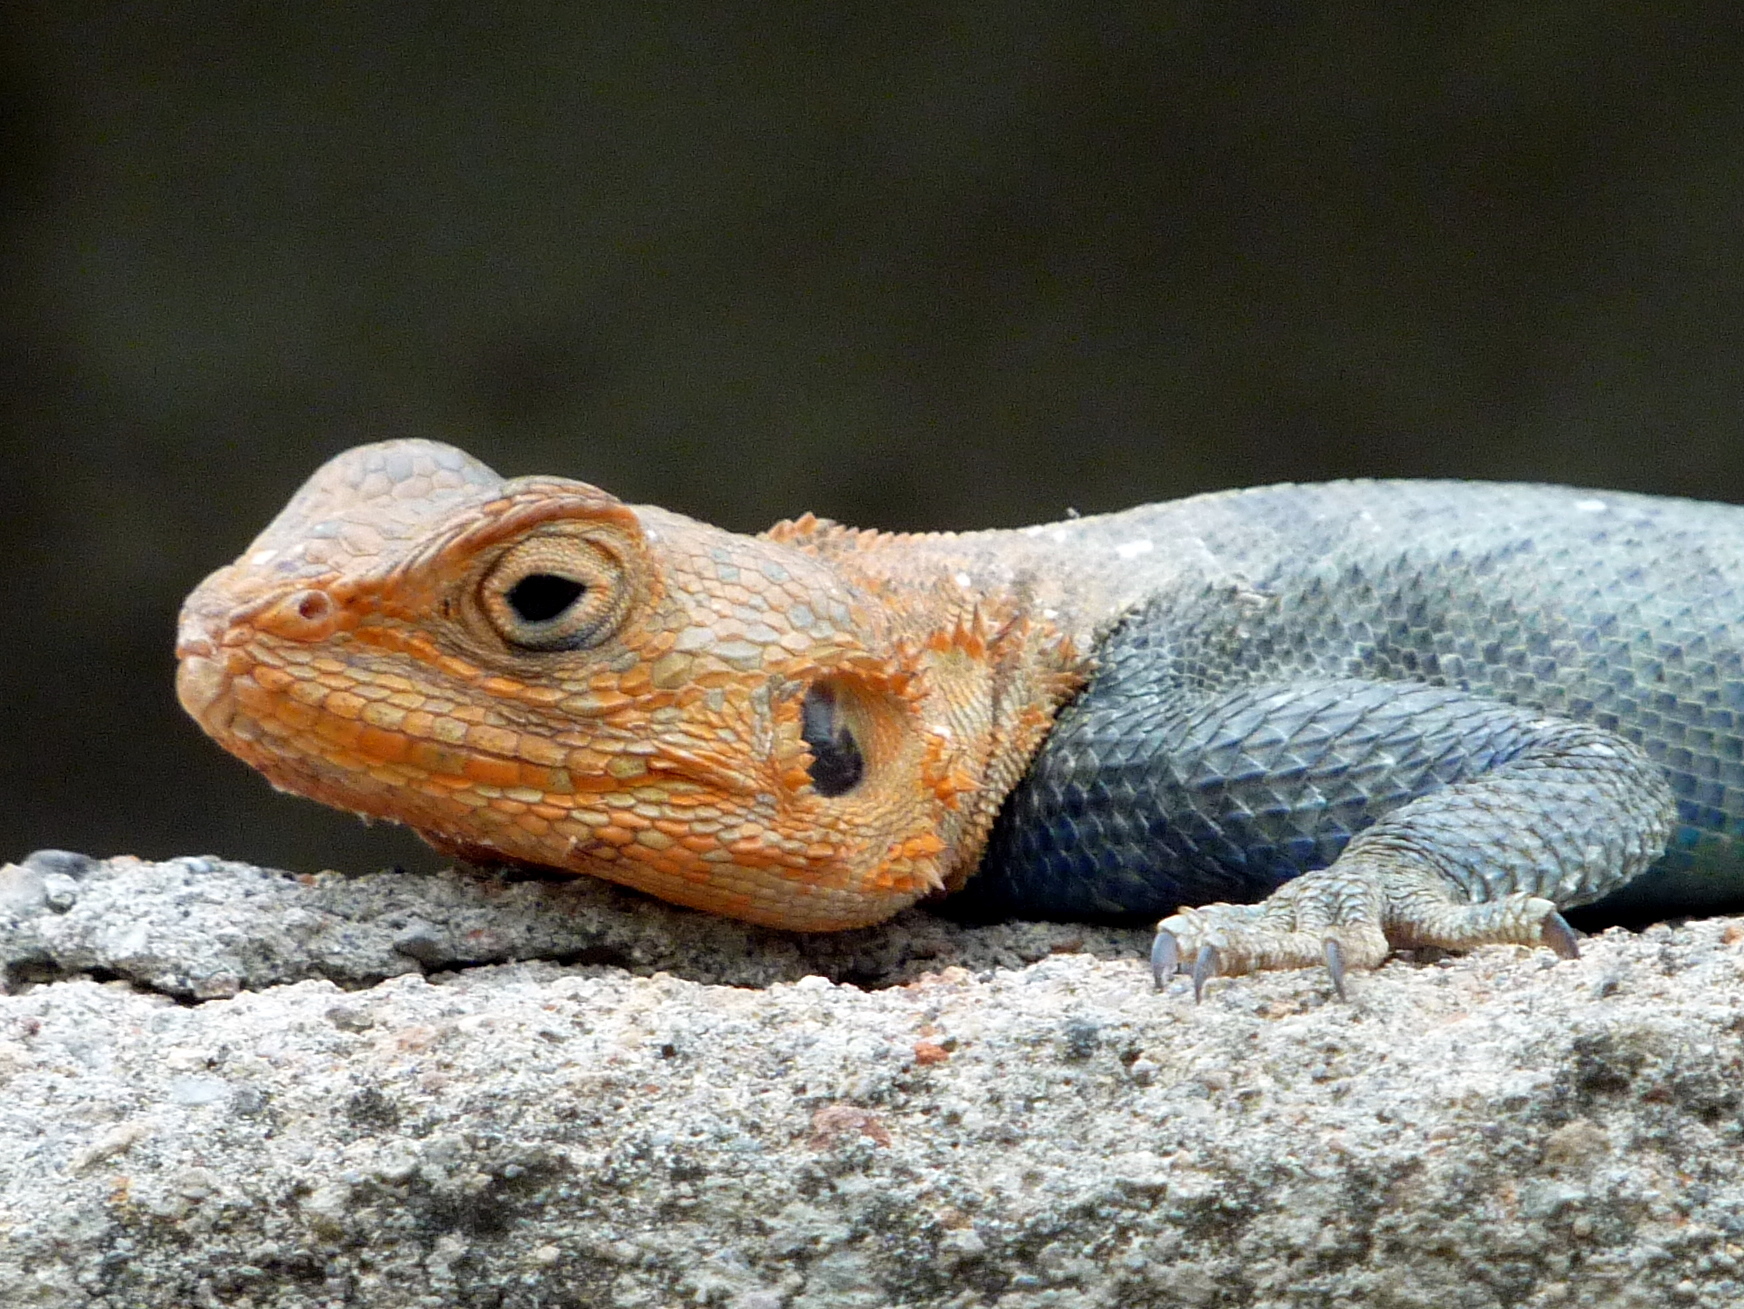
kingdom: Animalia
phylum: Chordata
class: Squamata
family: Agamidae
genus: Agama
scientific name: Agama dodomae
